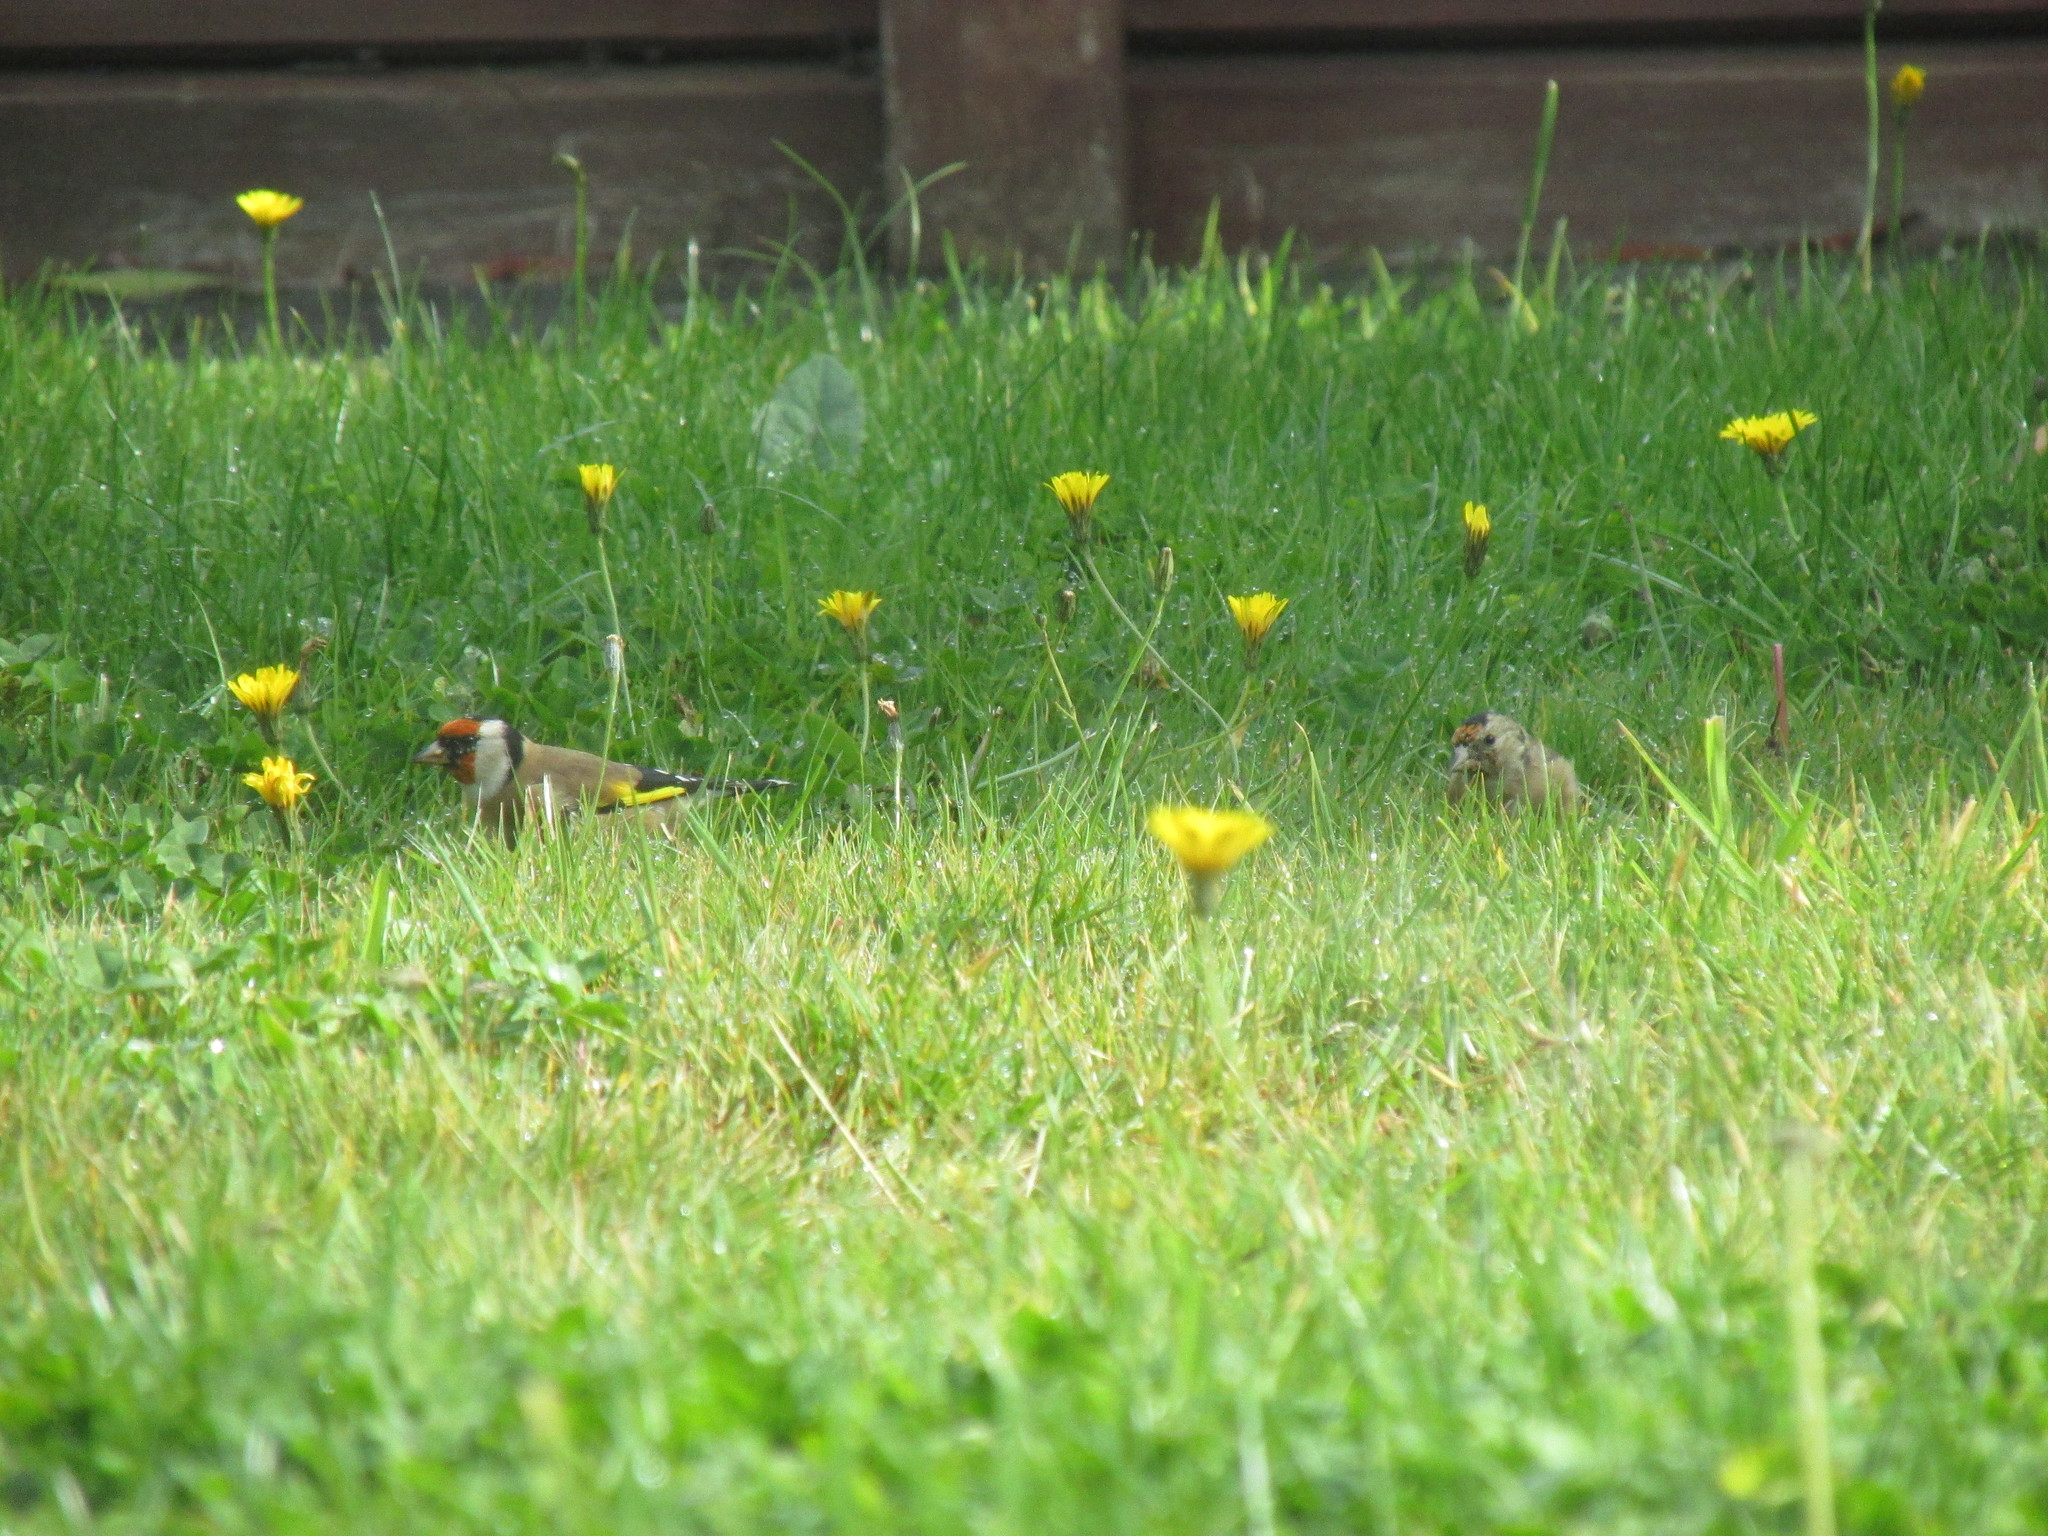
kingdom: Animalia
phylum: Chordata
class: Aves
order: Passeriformes
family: Fringillidae
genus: Carduelis
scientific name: Carduelis carduelis
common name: European goldfinch
